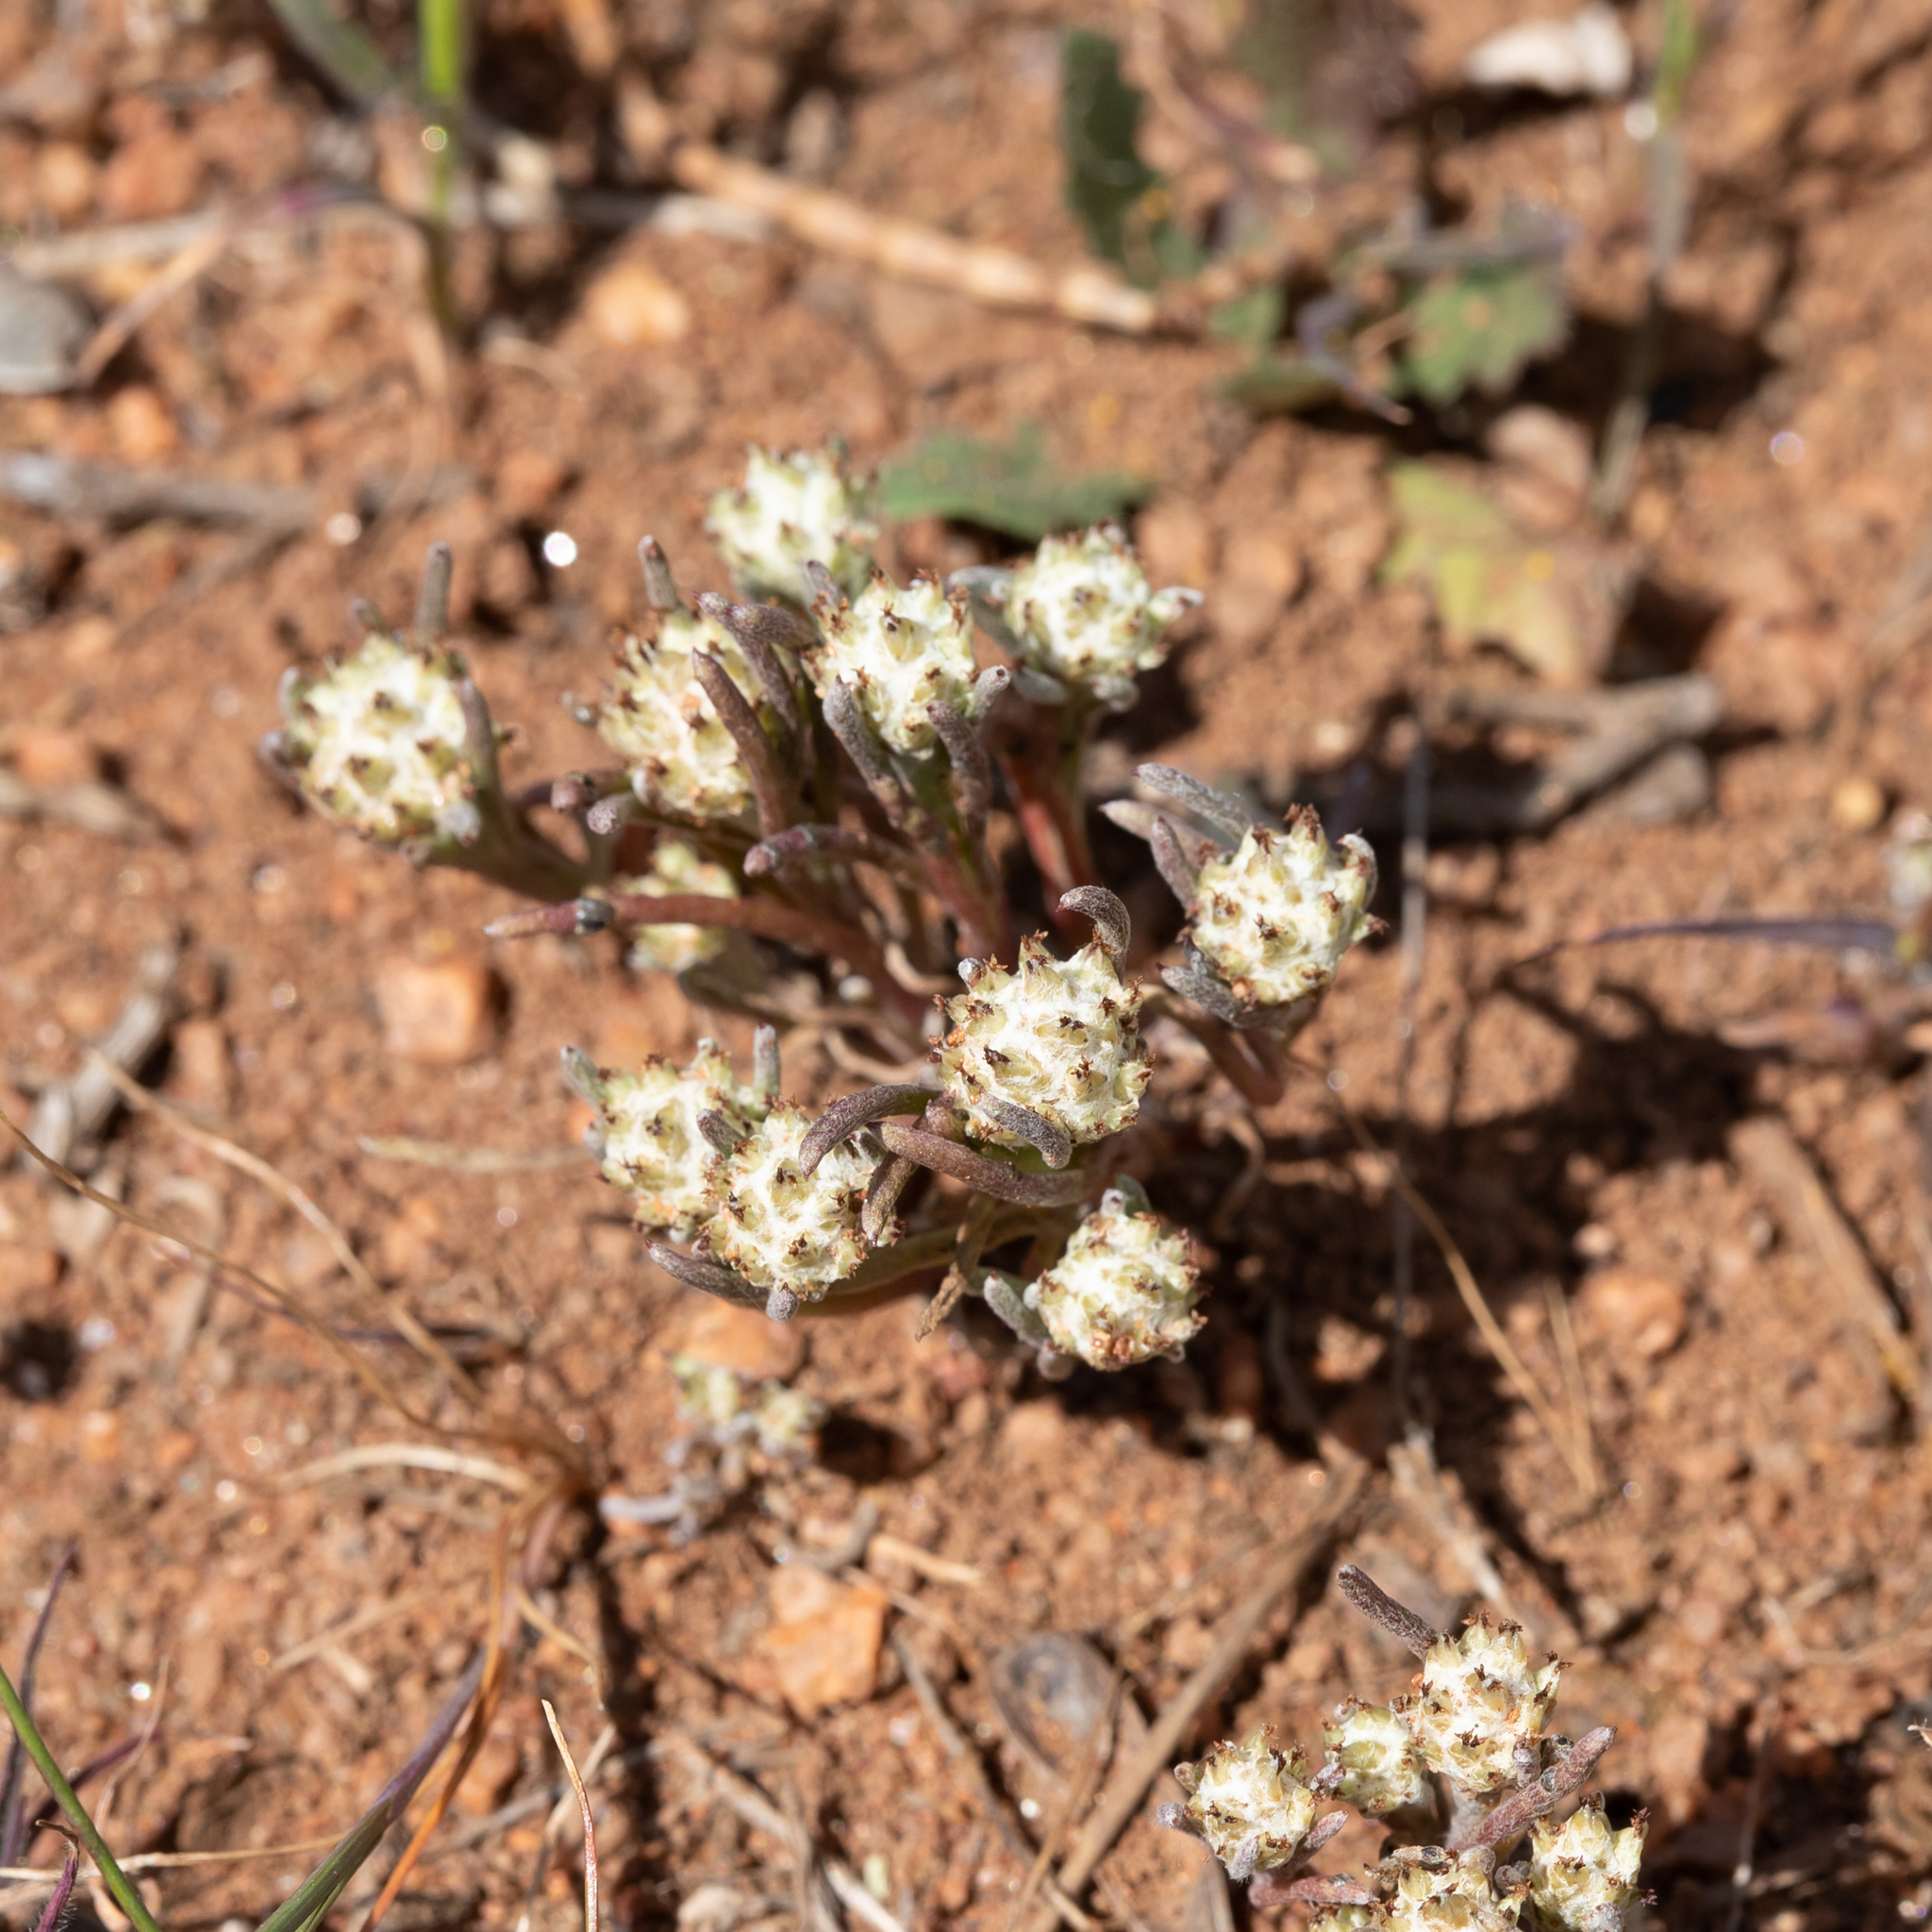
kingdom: Plantae
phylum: Tracheophyta
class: Magnoliopsida
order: Asterales
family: Asteraceae
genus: Blennospora
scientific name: Blennospora drummondii
